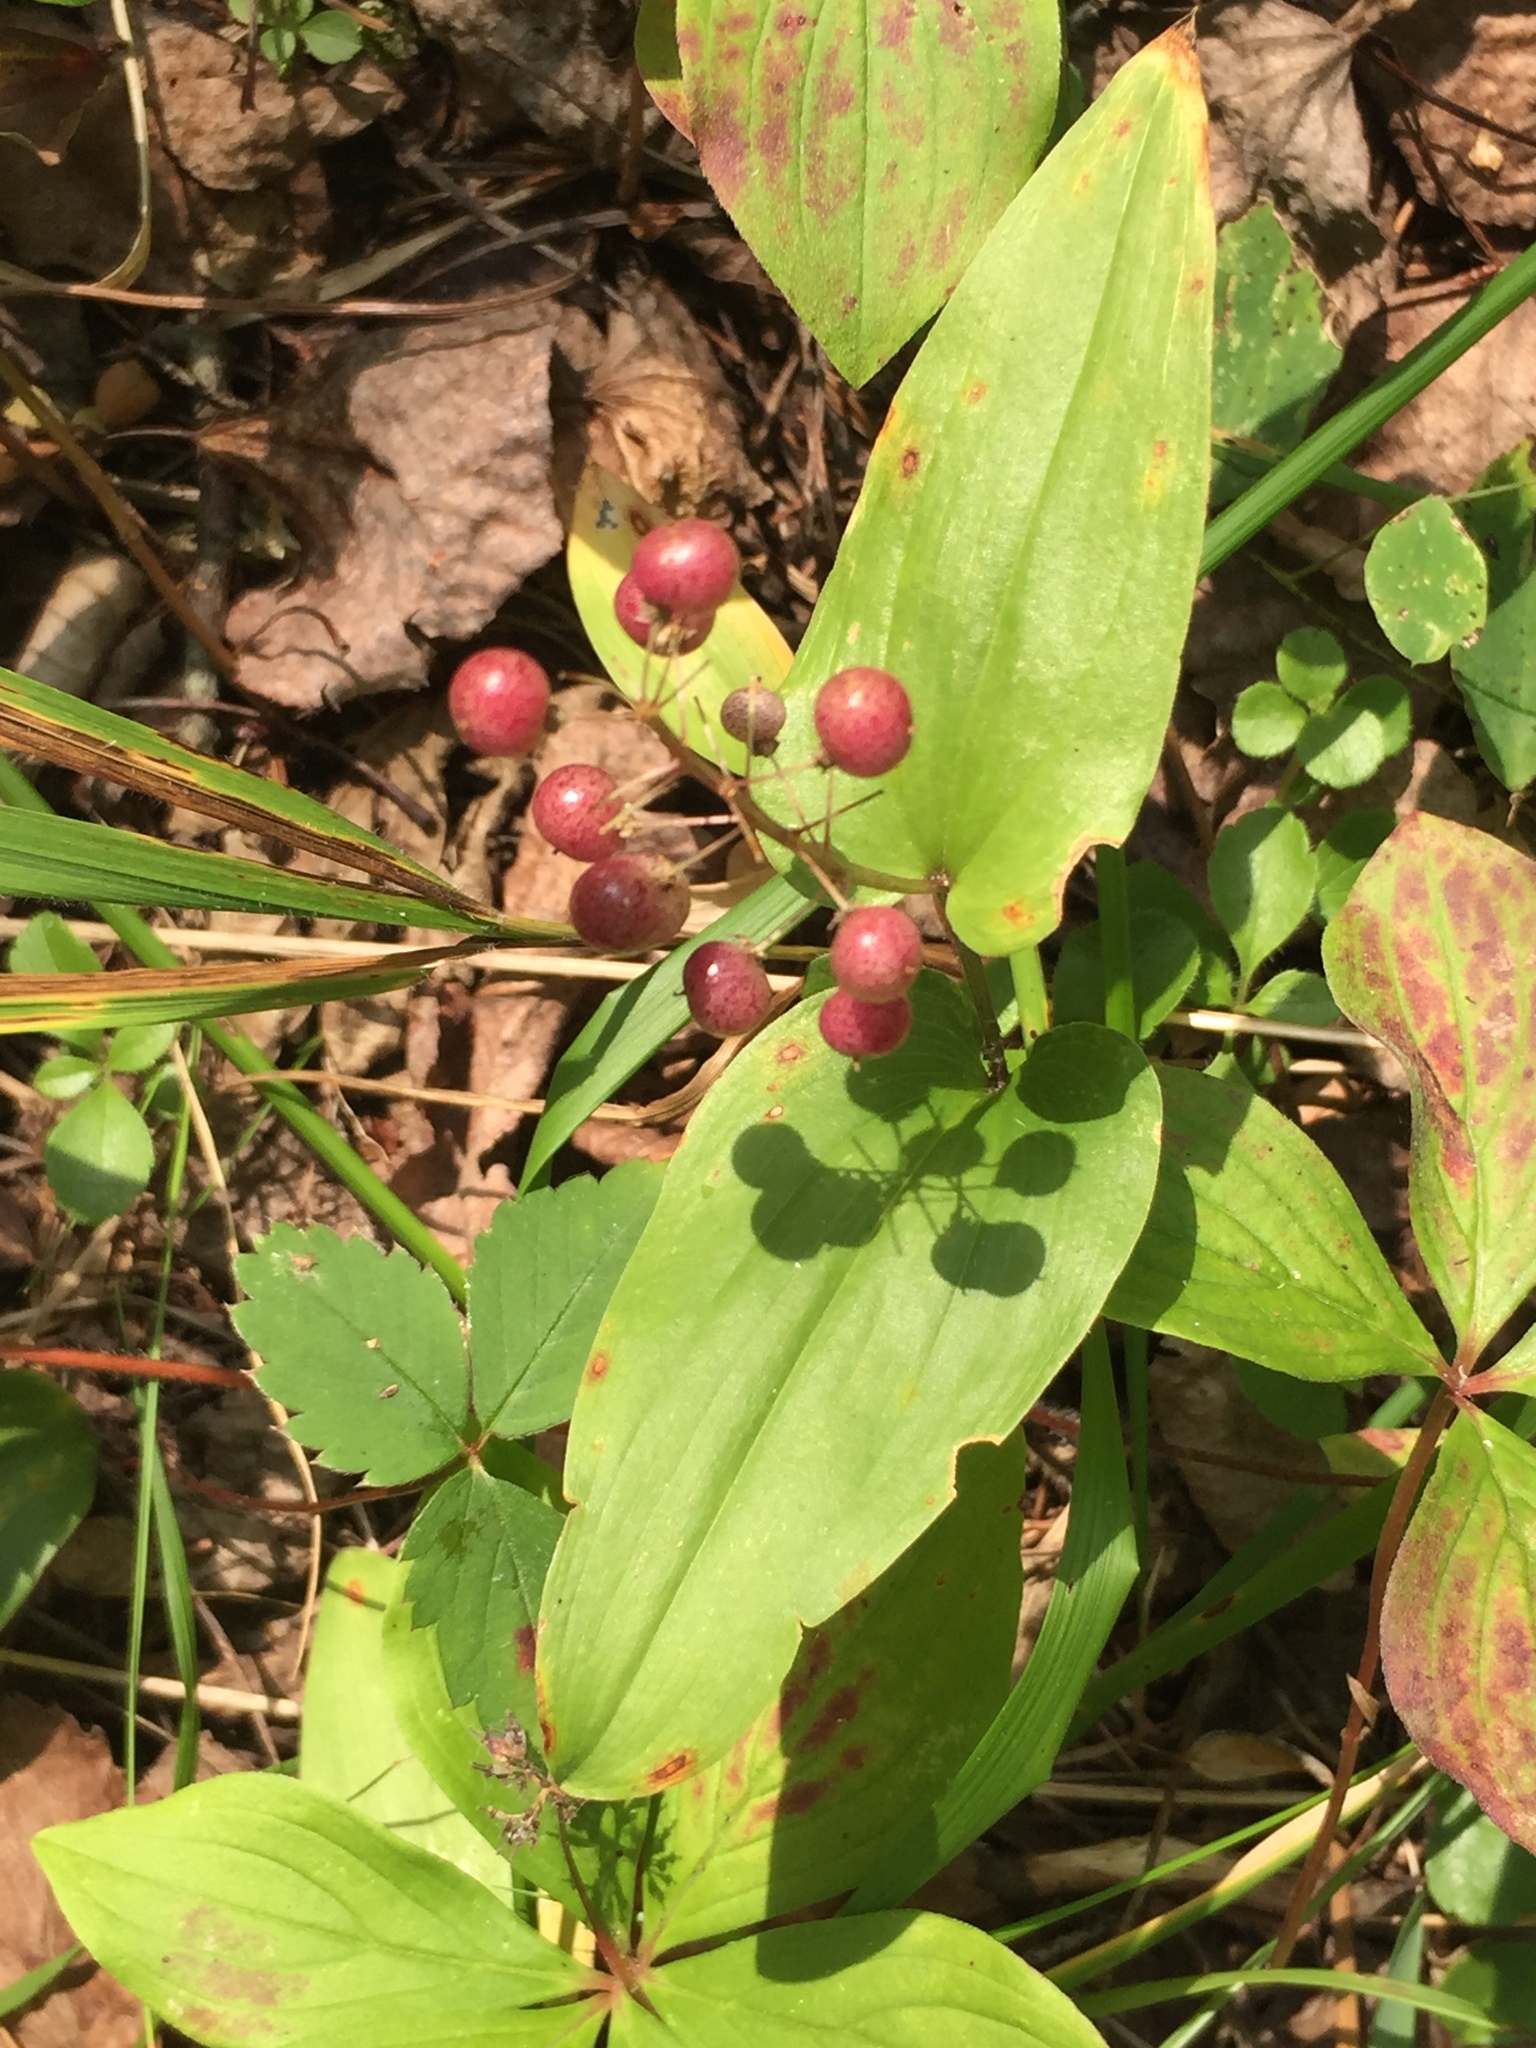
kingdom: Plantae
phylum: Tracheophyta
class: Liliopsida
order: Asparagales
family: Asparagaceae
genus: Maianthemum
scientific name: Maianthemum canadense
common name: False lily-of-the-valley
